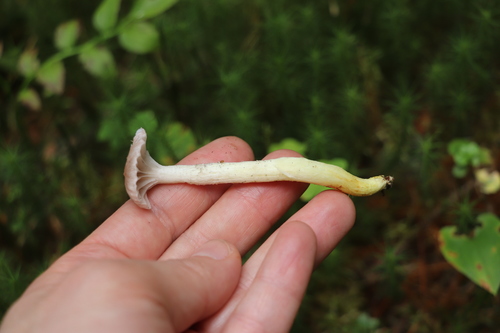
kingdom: Fungi
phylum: Basidiomycota
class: Agaricomycetes
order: Boletales
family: Gomphidiaceae
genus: Gomphidius
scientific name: Gomphidius flavipes
